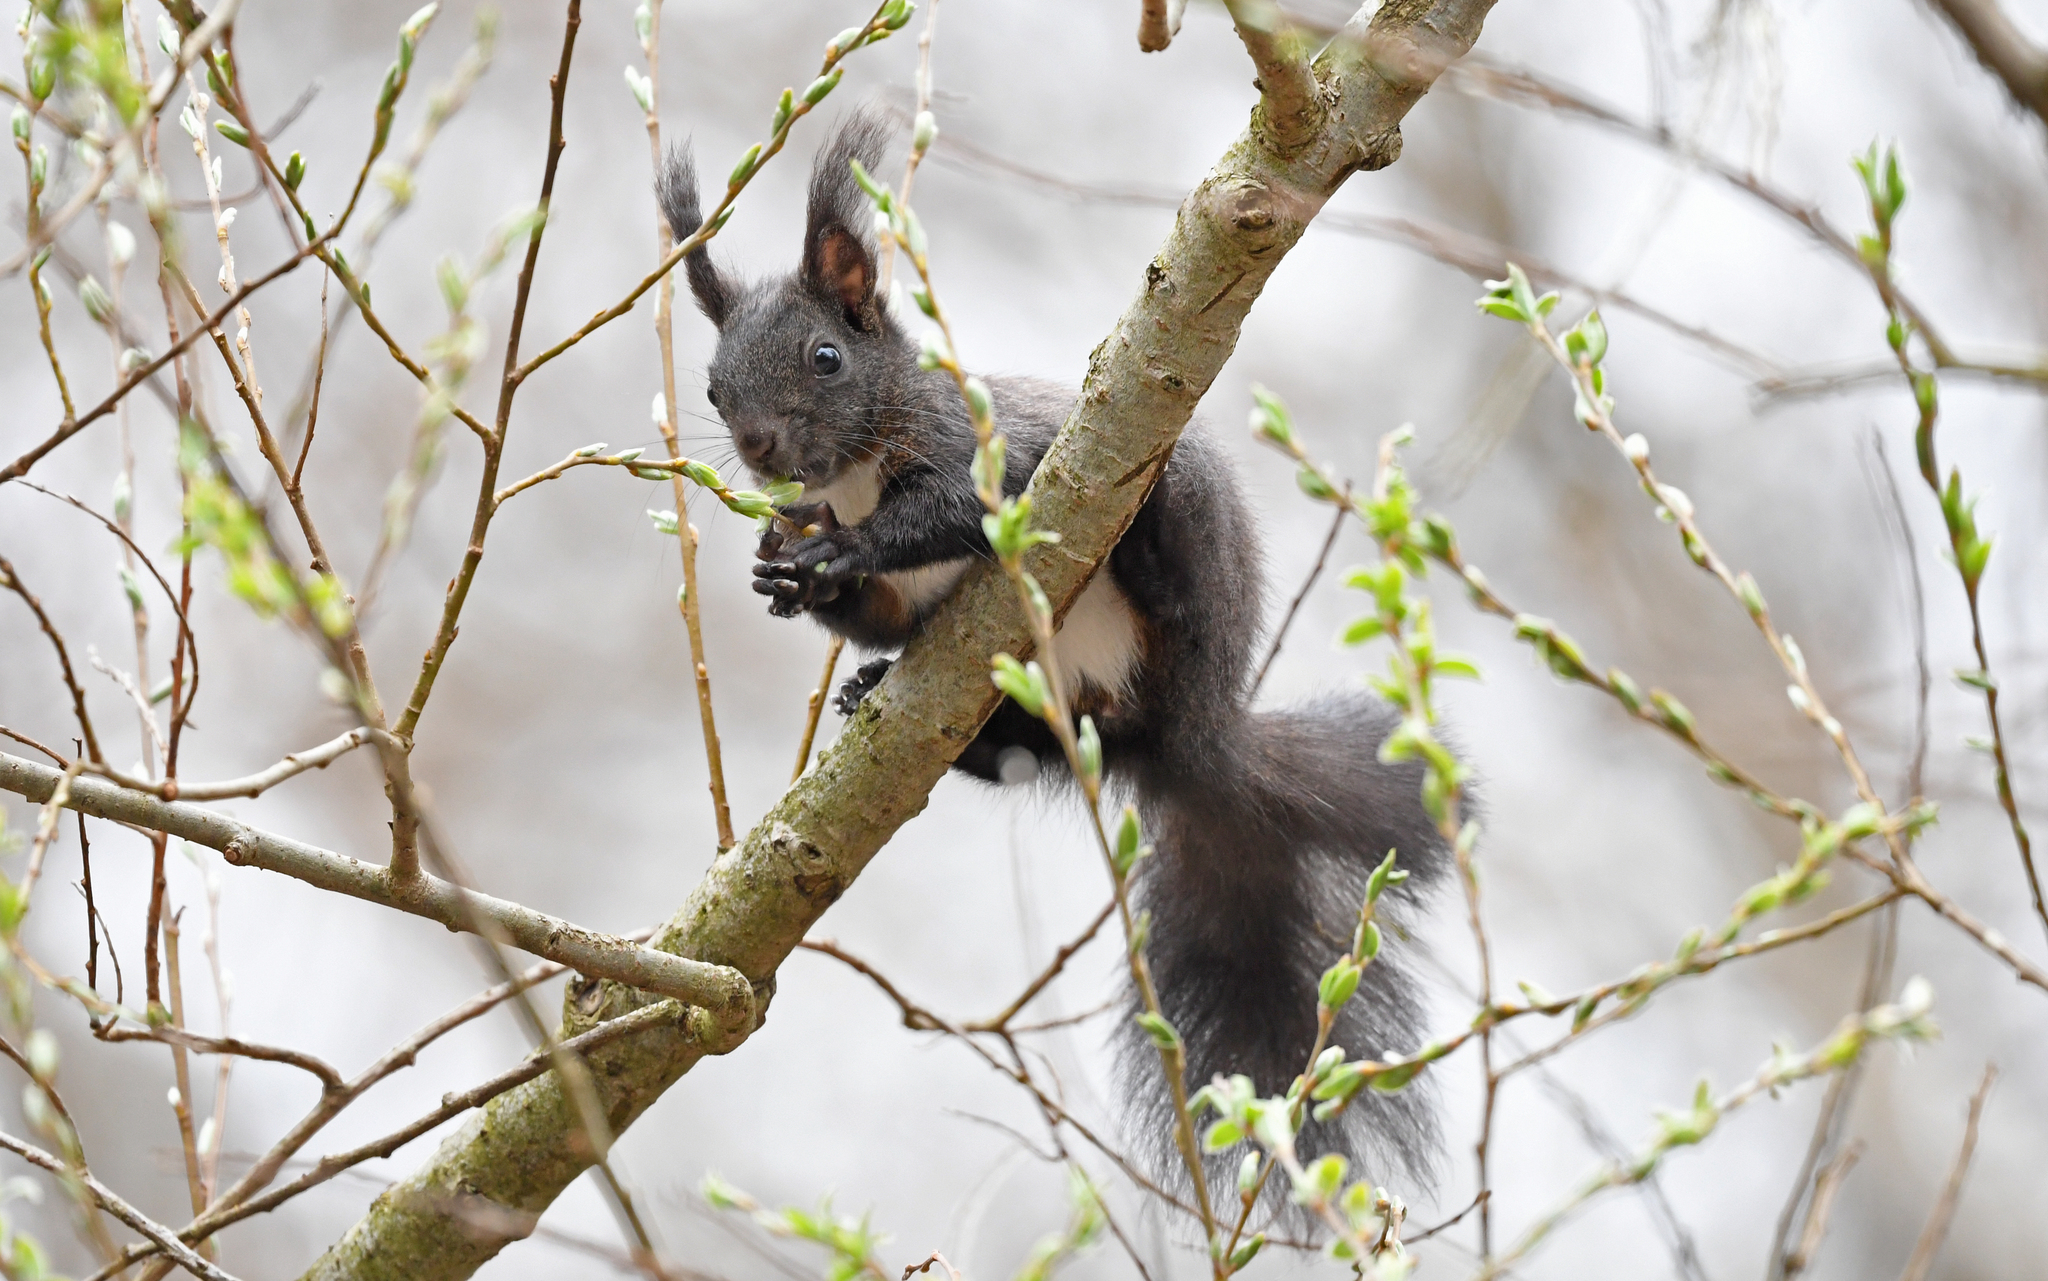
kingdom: Animalia
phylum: Chordata
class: Mammalia
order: Rodentia
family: Sciuridae
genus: Sciurus
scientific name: Sciurus vulgaris
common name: Eurasian red squirrel
